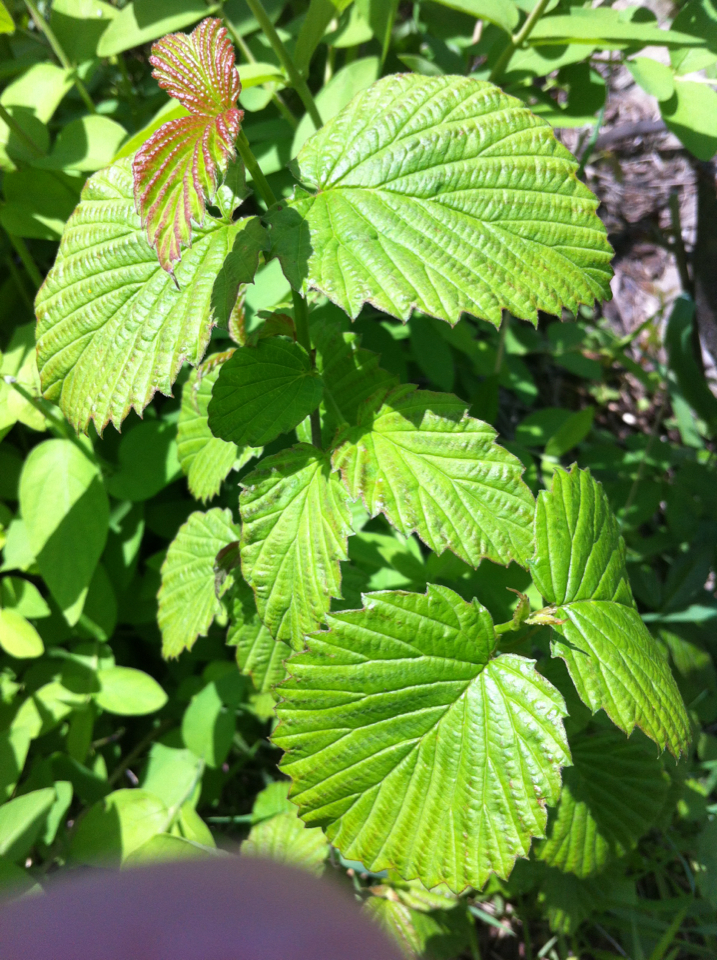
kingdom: Plantae
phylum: Tracheophyta
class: Magnoliopsida
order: Dipsacales
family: Viburnaceae
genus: Viburnum
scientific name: Viburnum dentatum
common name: Arrow-wood
